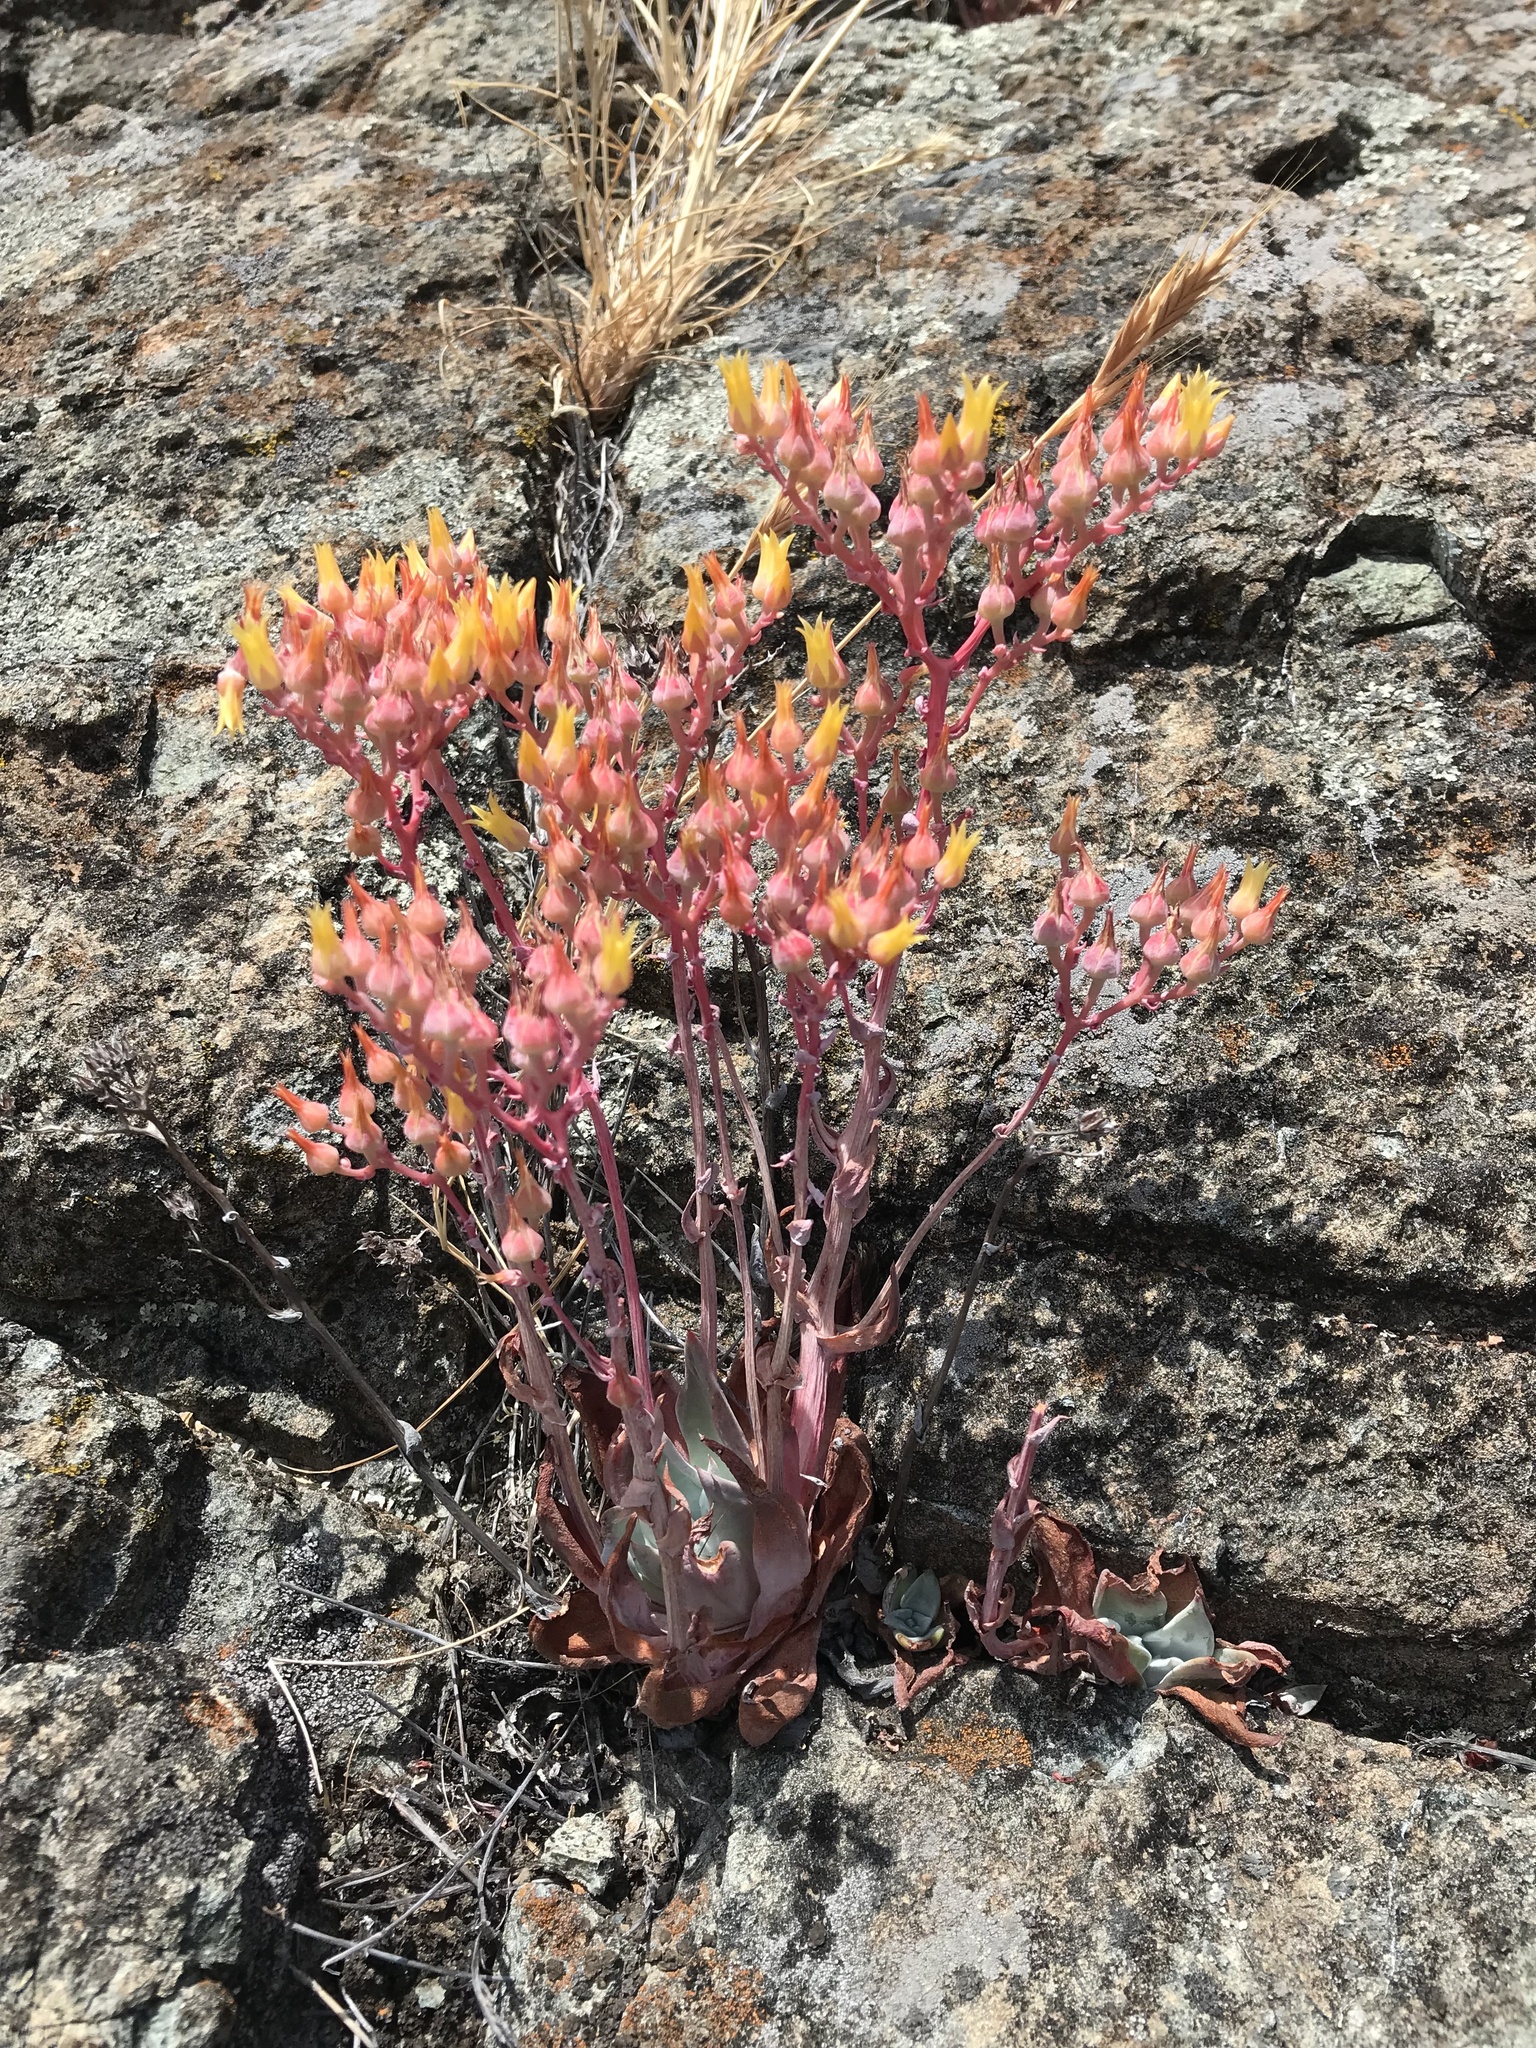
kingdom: Plantae
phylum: Tracheophyta
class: Magnoliopsida
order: Saxifragales
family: Crassulaceae
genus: Dudleya
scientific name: Dudleya cymosa
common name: Canyon dudleya
